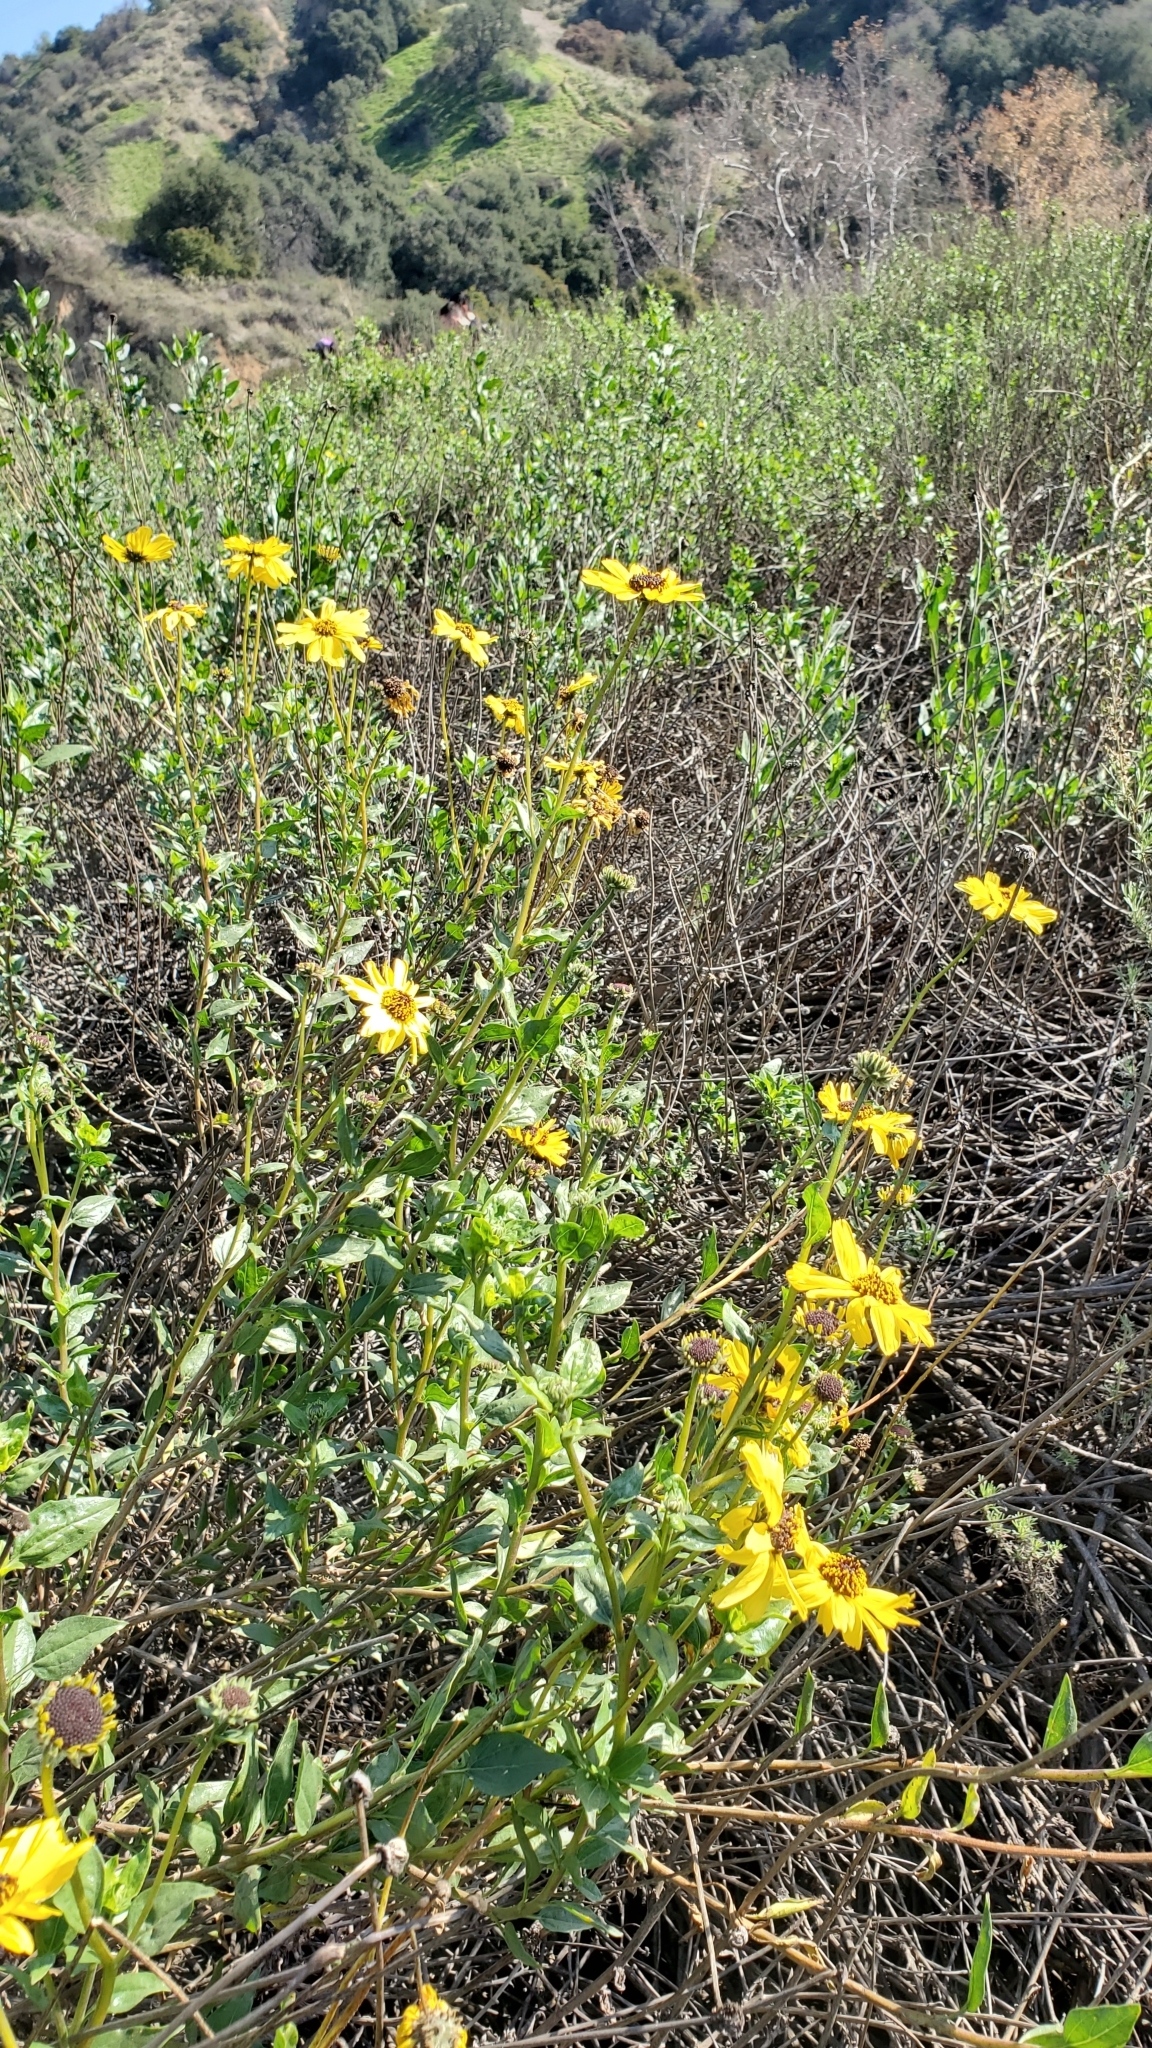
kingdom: Plantae
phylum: Tracheophyta
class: Magnoliopsida
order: Asterales
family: Asteraceae
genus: Encelia
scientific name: Encelia californica
